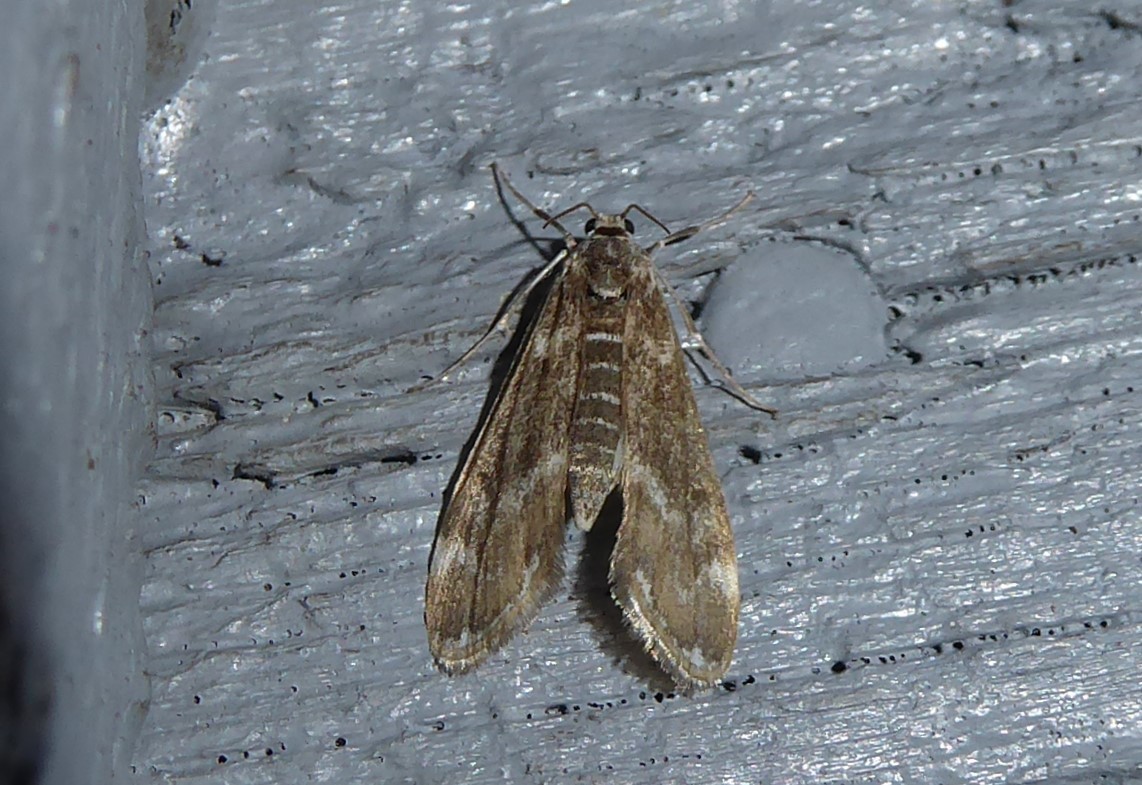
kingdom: Animalia
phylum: Arthropoda
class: Insecta
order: Lepidoptera
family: Crambidae
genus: Hygraula
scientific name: Hygraula nitens
